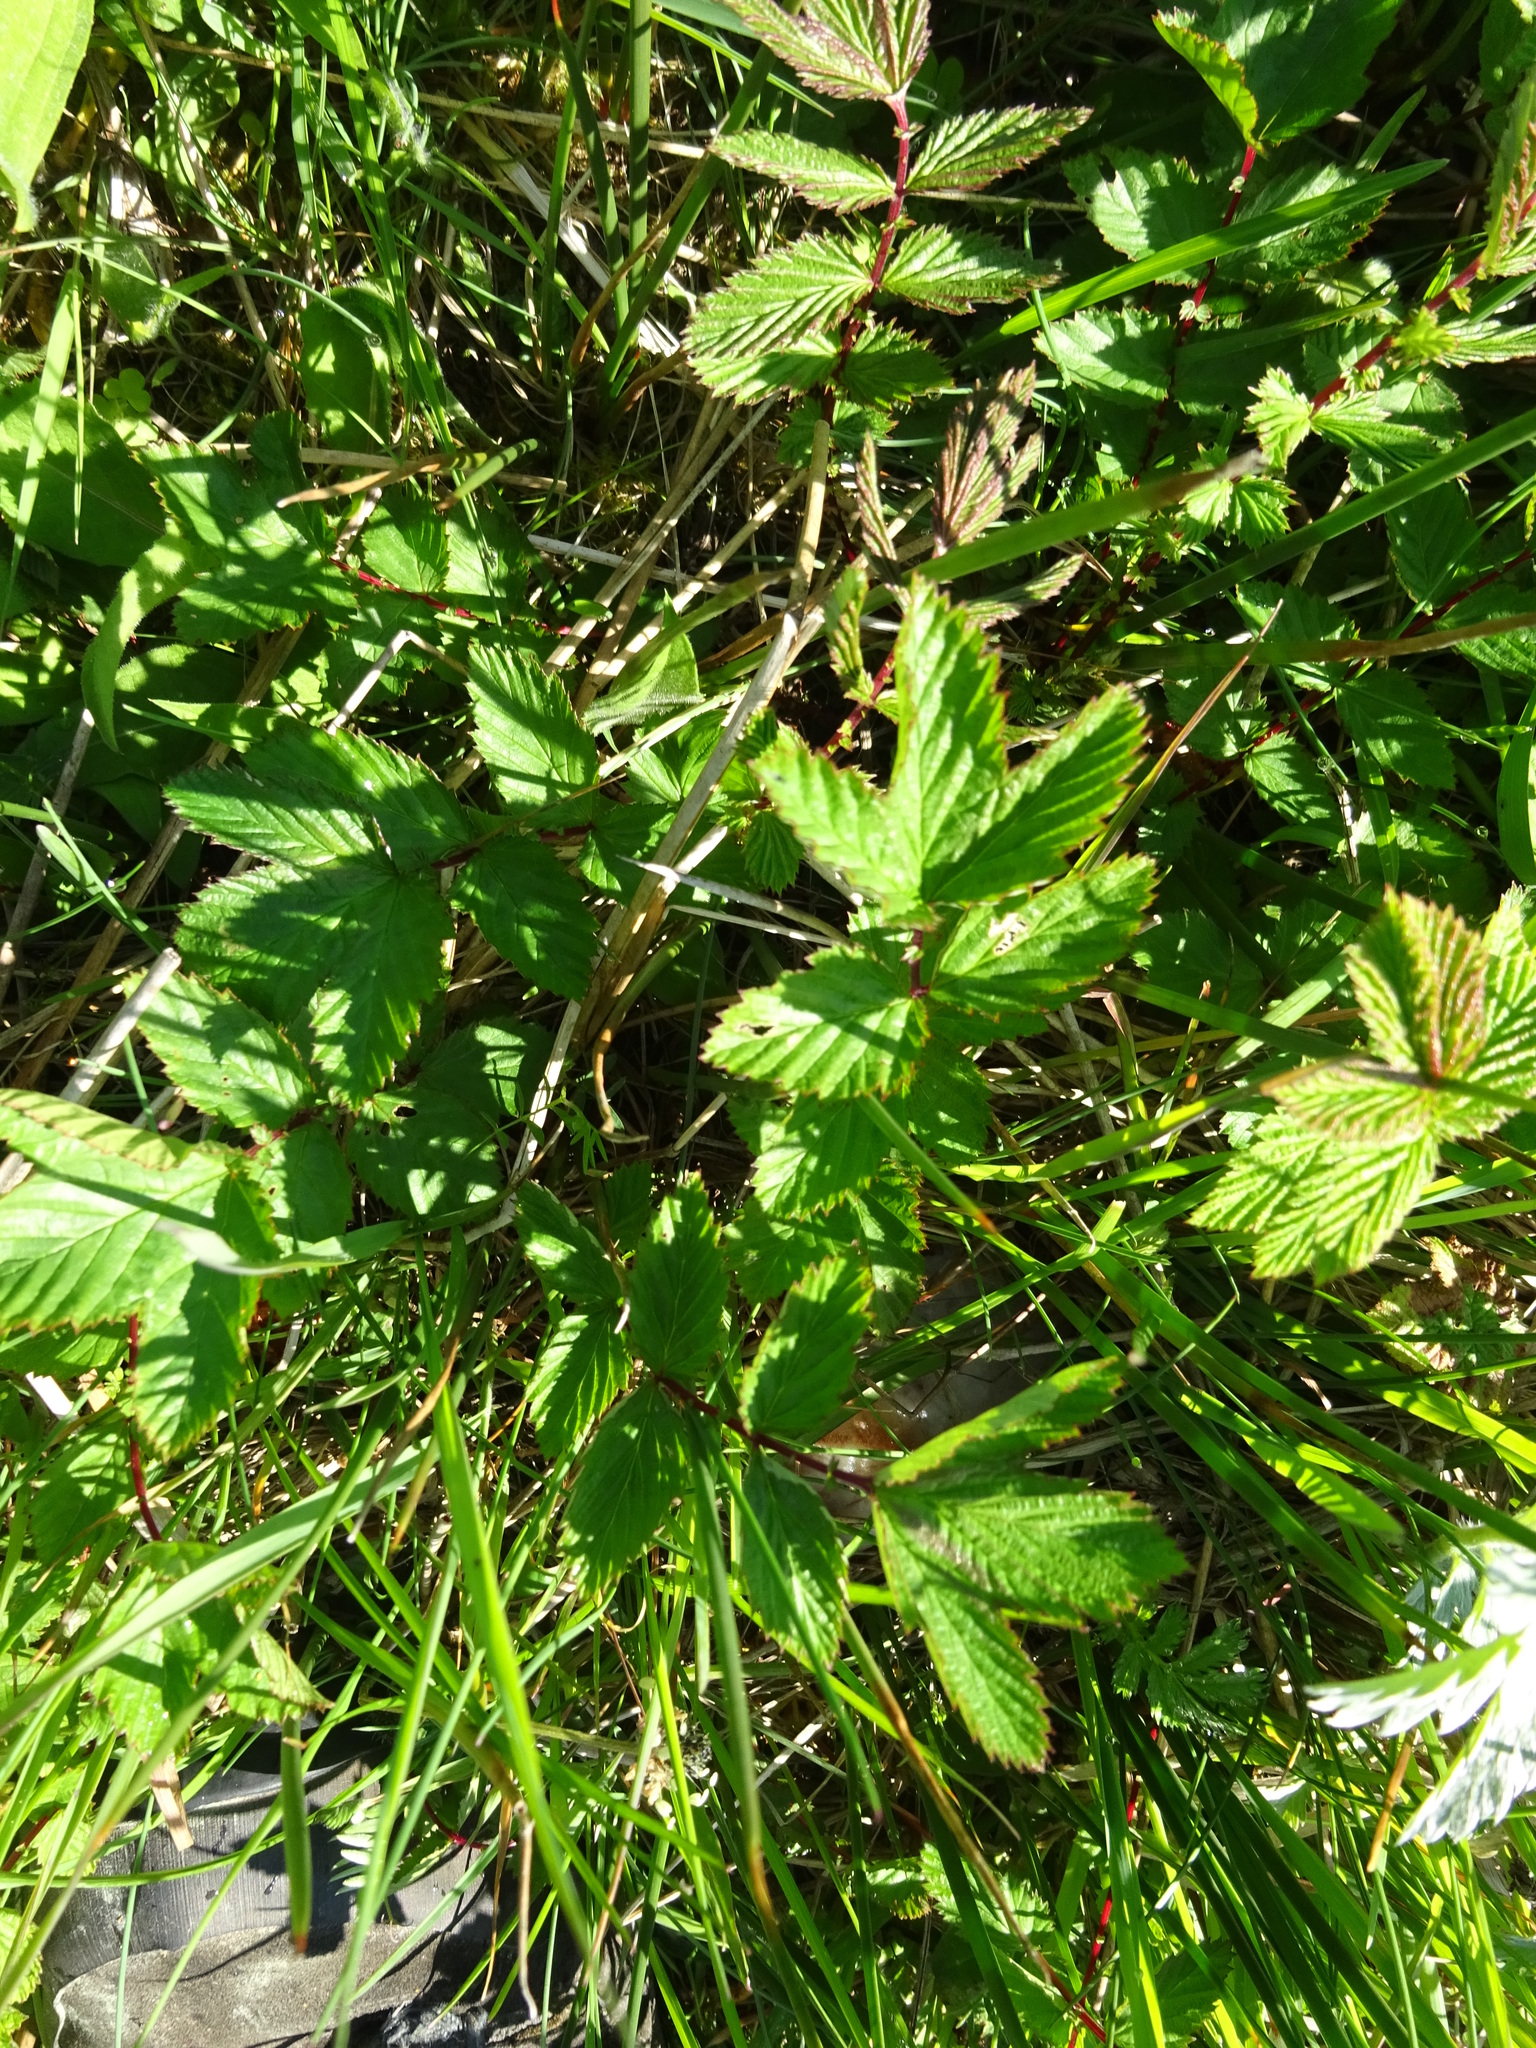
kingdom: Plantae
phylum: Tracheophyta
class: Magnoliopsida
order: Rosales
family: Rosaceae
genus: Filipendula
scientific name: Filipendula ulmaria
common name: Meadowsweet
